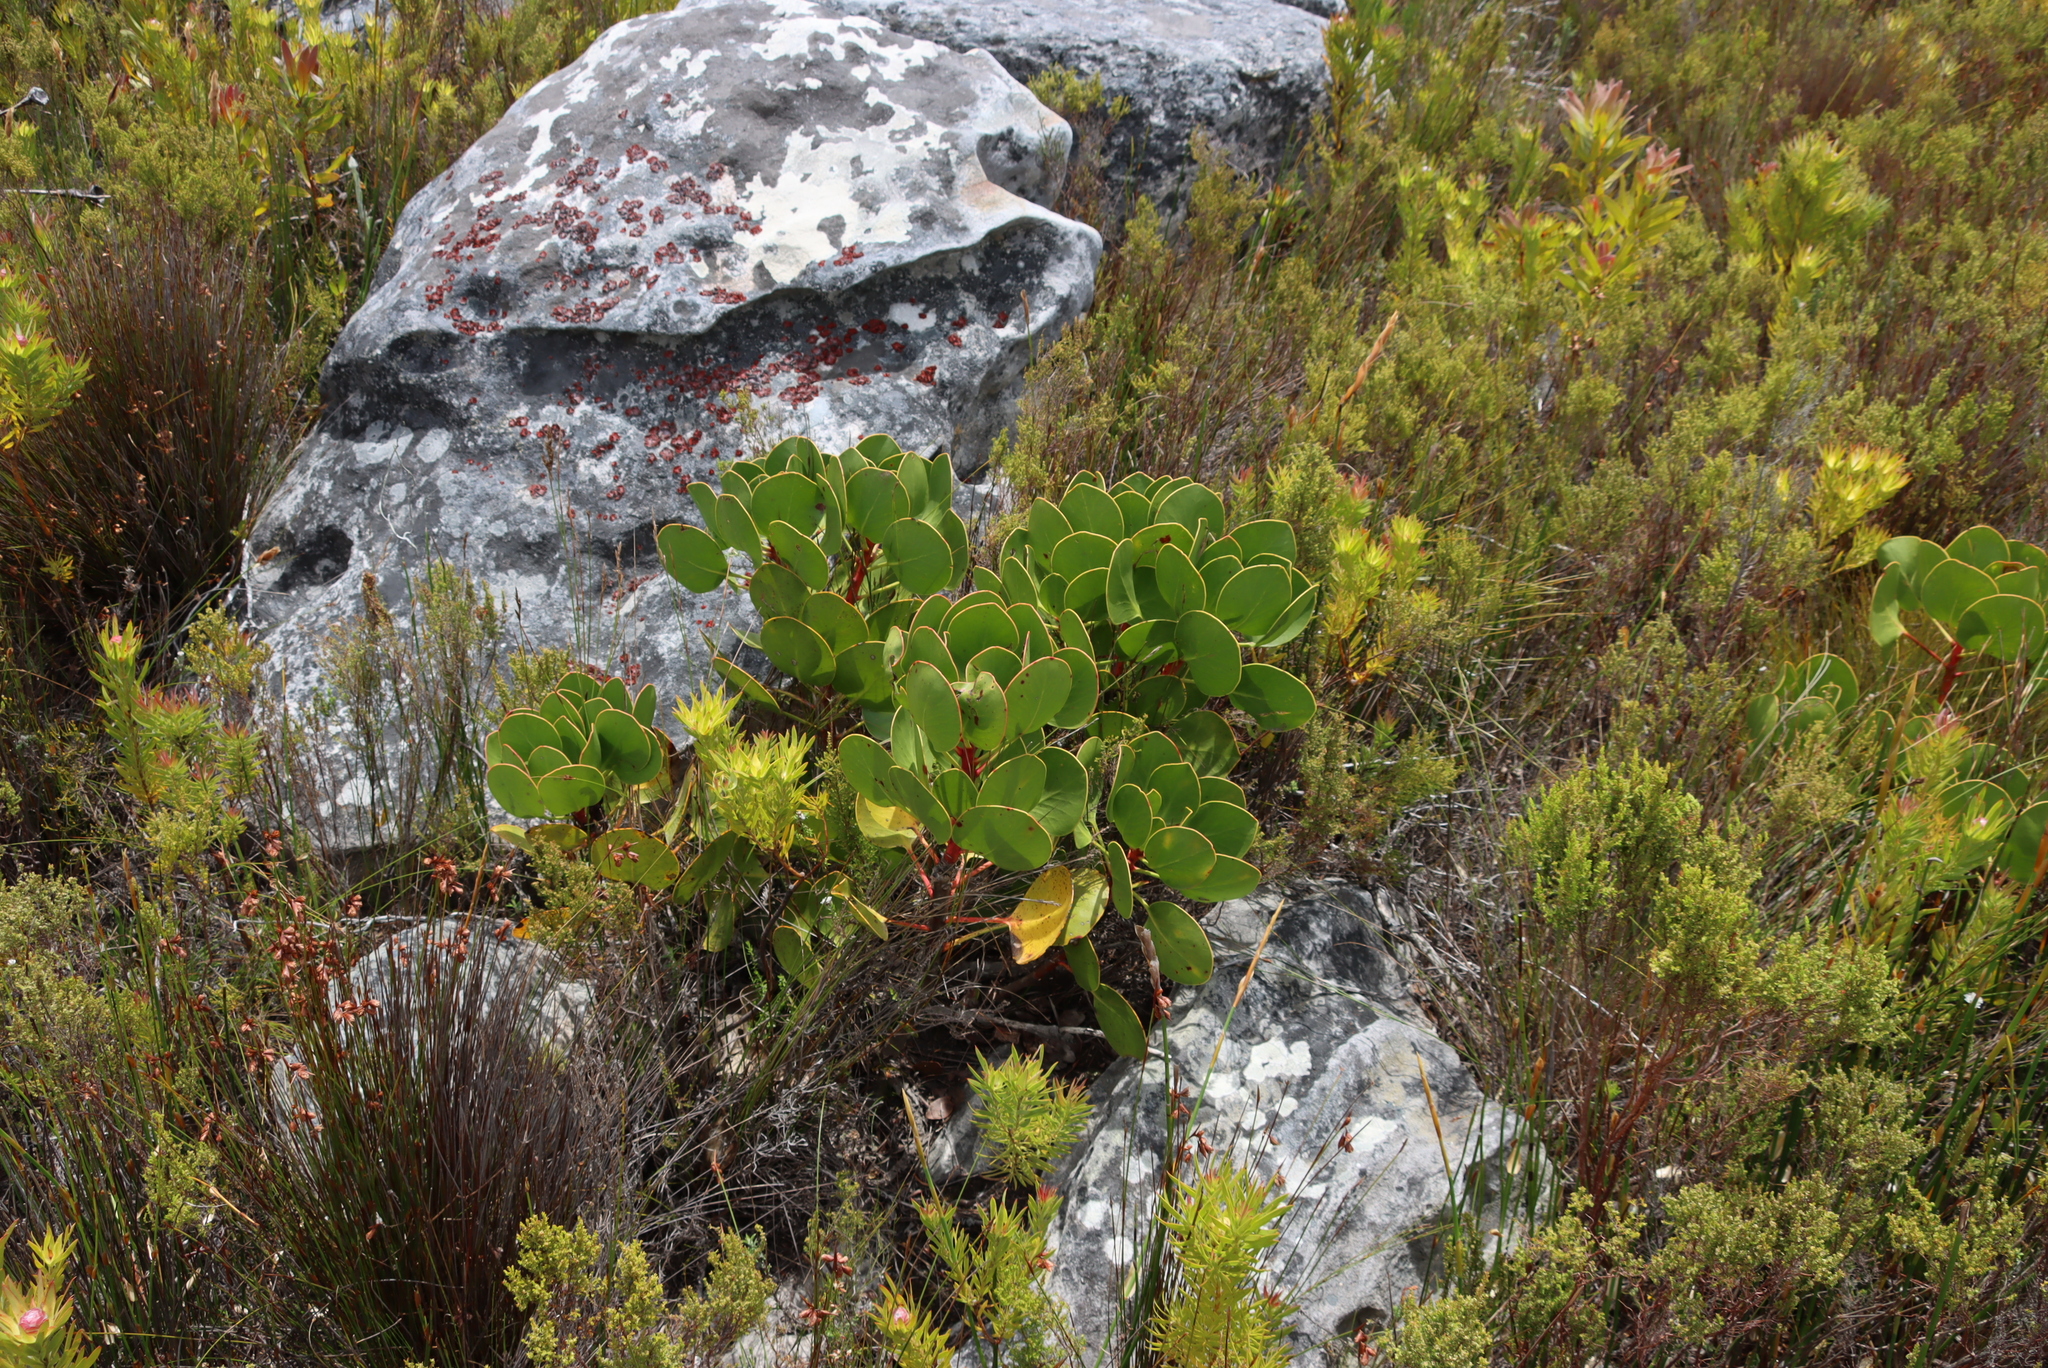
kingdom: Plantae
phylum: Tracheophyta
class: Magnoliopsida
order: Proteales
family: Proteaceae
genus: Protea
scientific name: Protea cynaroides
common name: King protea
